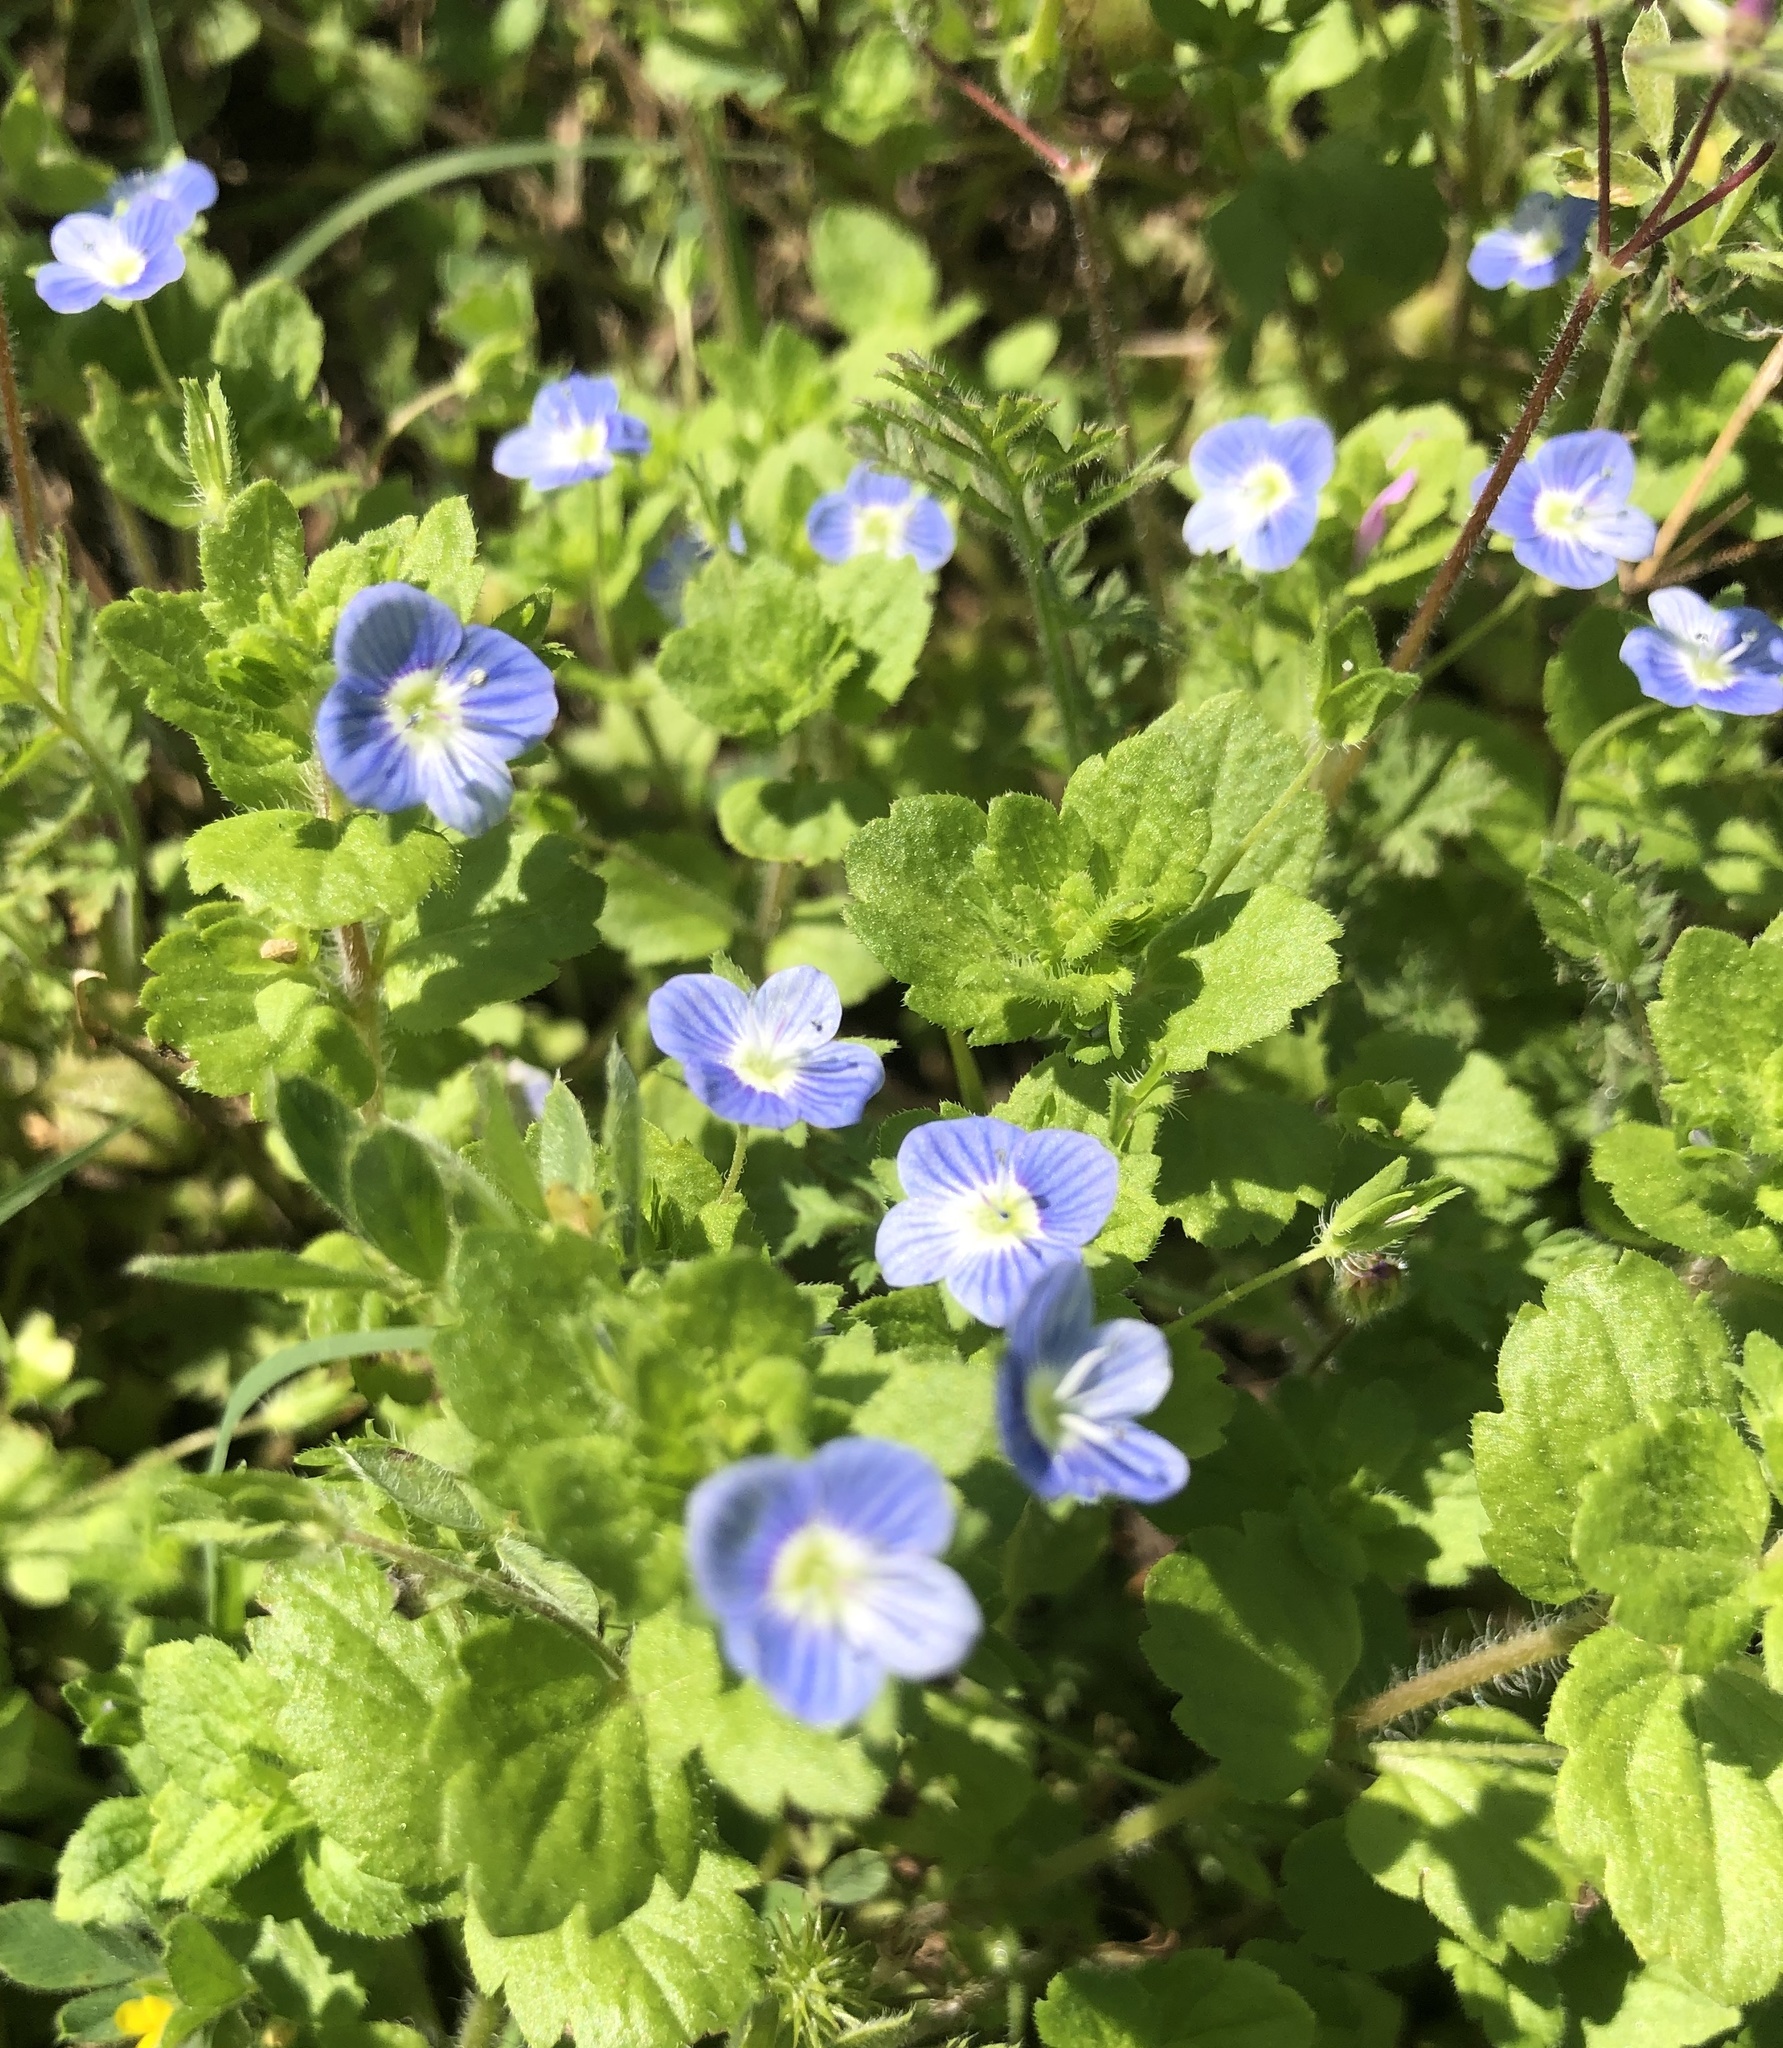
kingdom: Plantae
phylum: Tracheophyta
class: Magnoliopsida
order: Lamiales
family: Plantaginaceae
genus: Veronica
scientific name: Veronica persica
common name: Common field-speedwell
